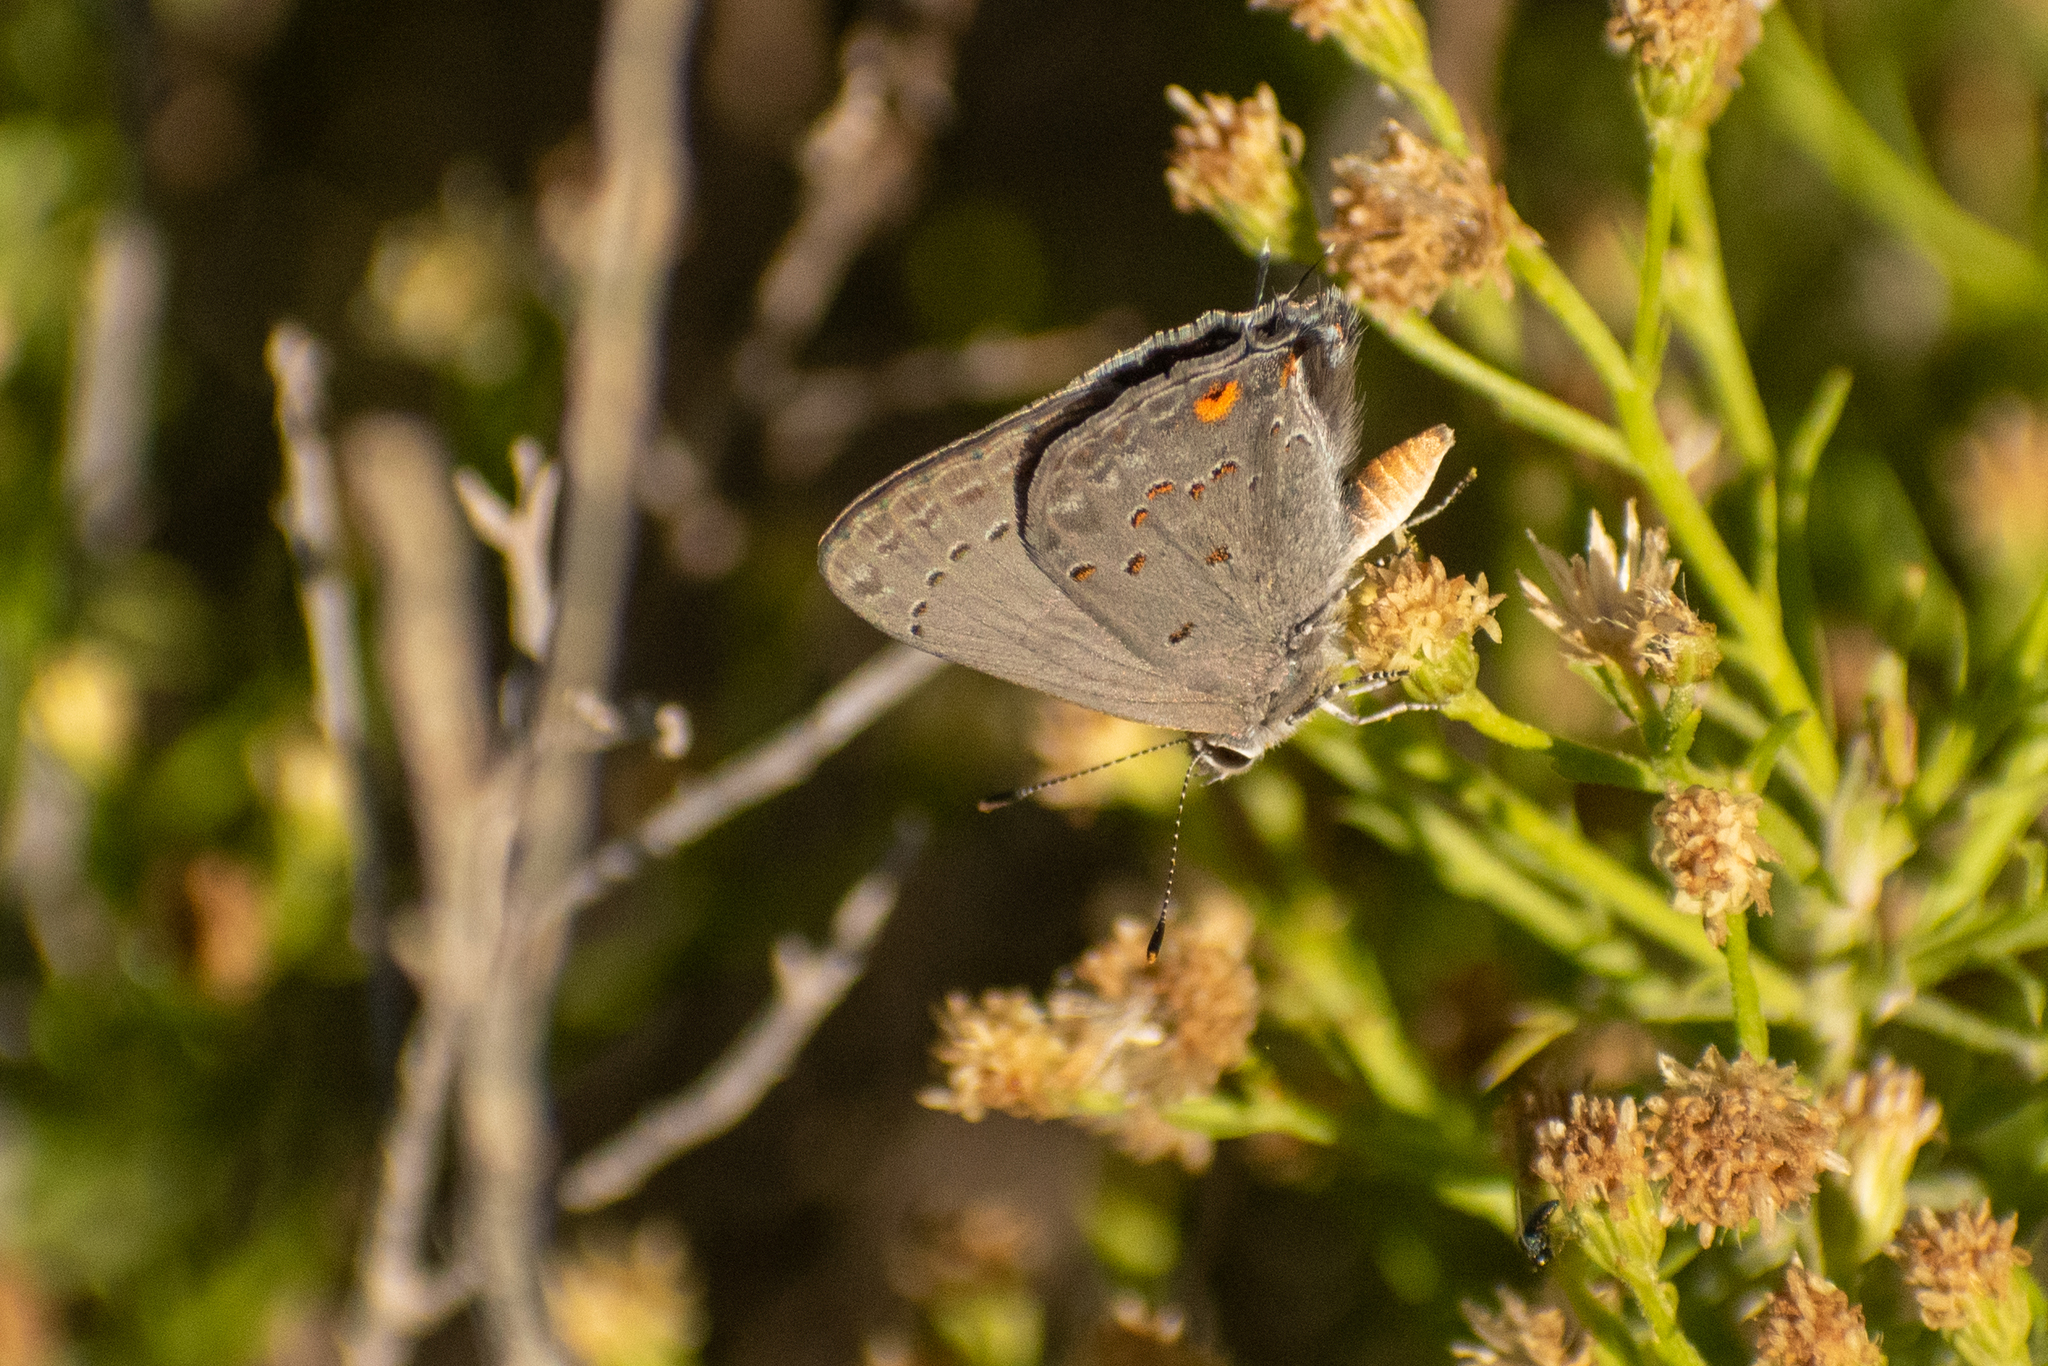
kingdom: Animalia
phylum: Arthropoda
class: Insecta
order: Lepidoptera
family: Lycaenidae
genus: Strymon
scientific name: Strymon eurytulus
